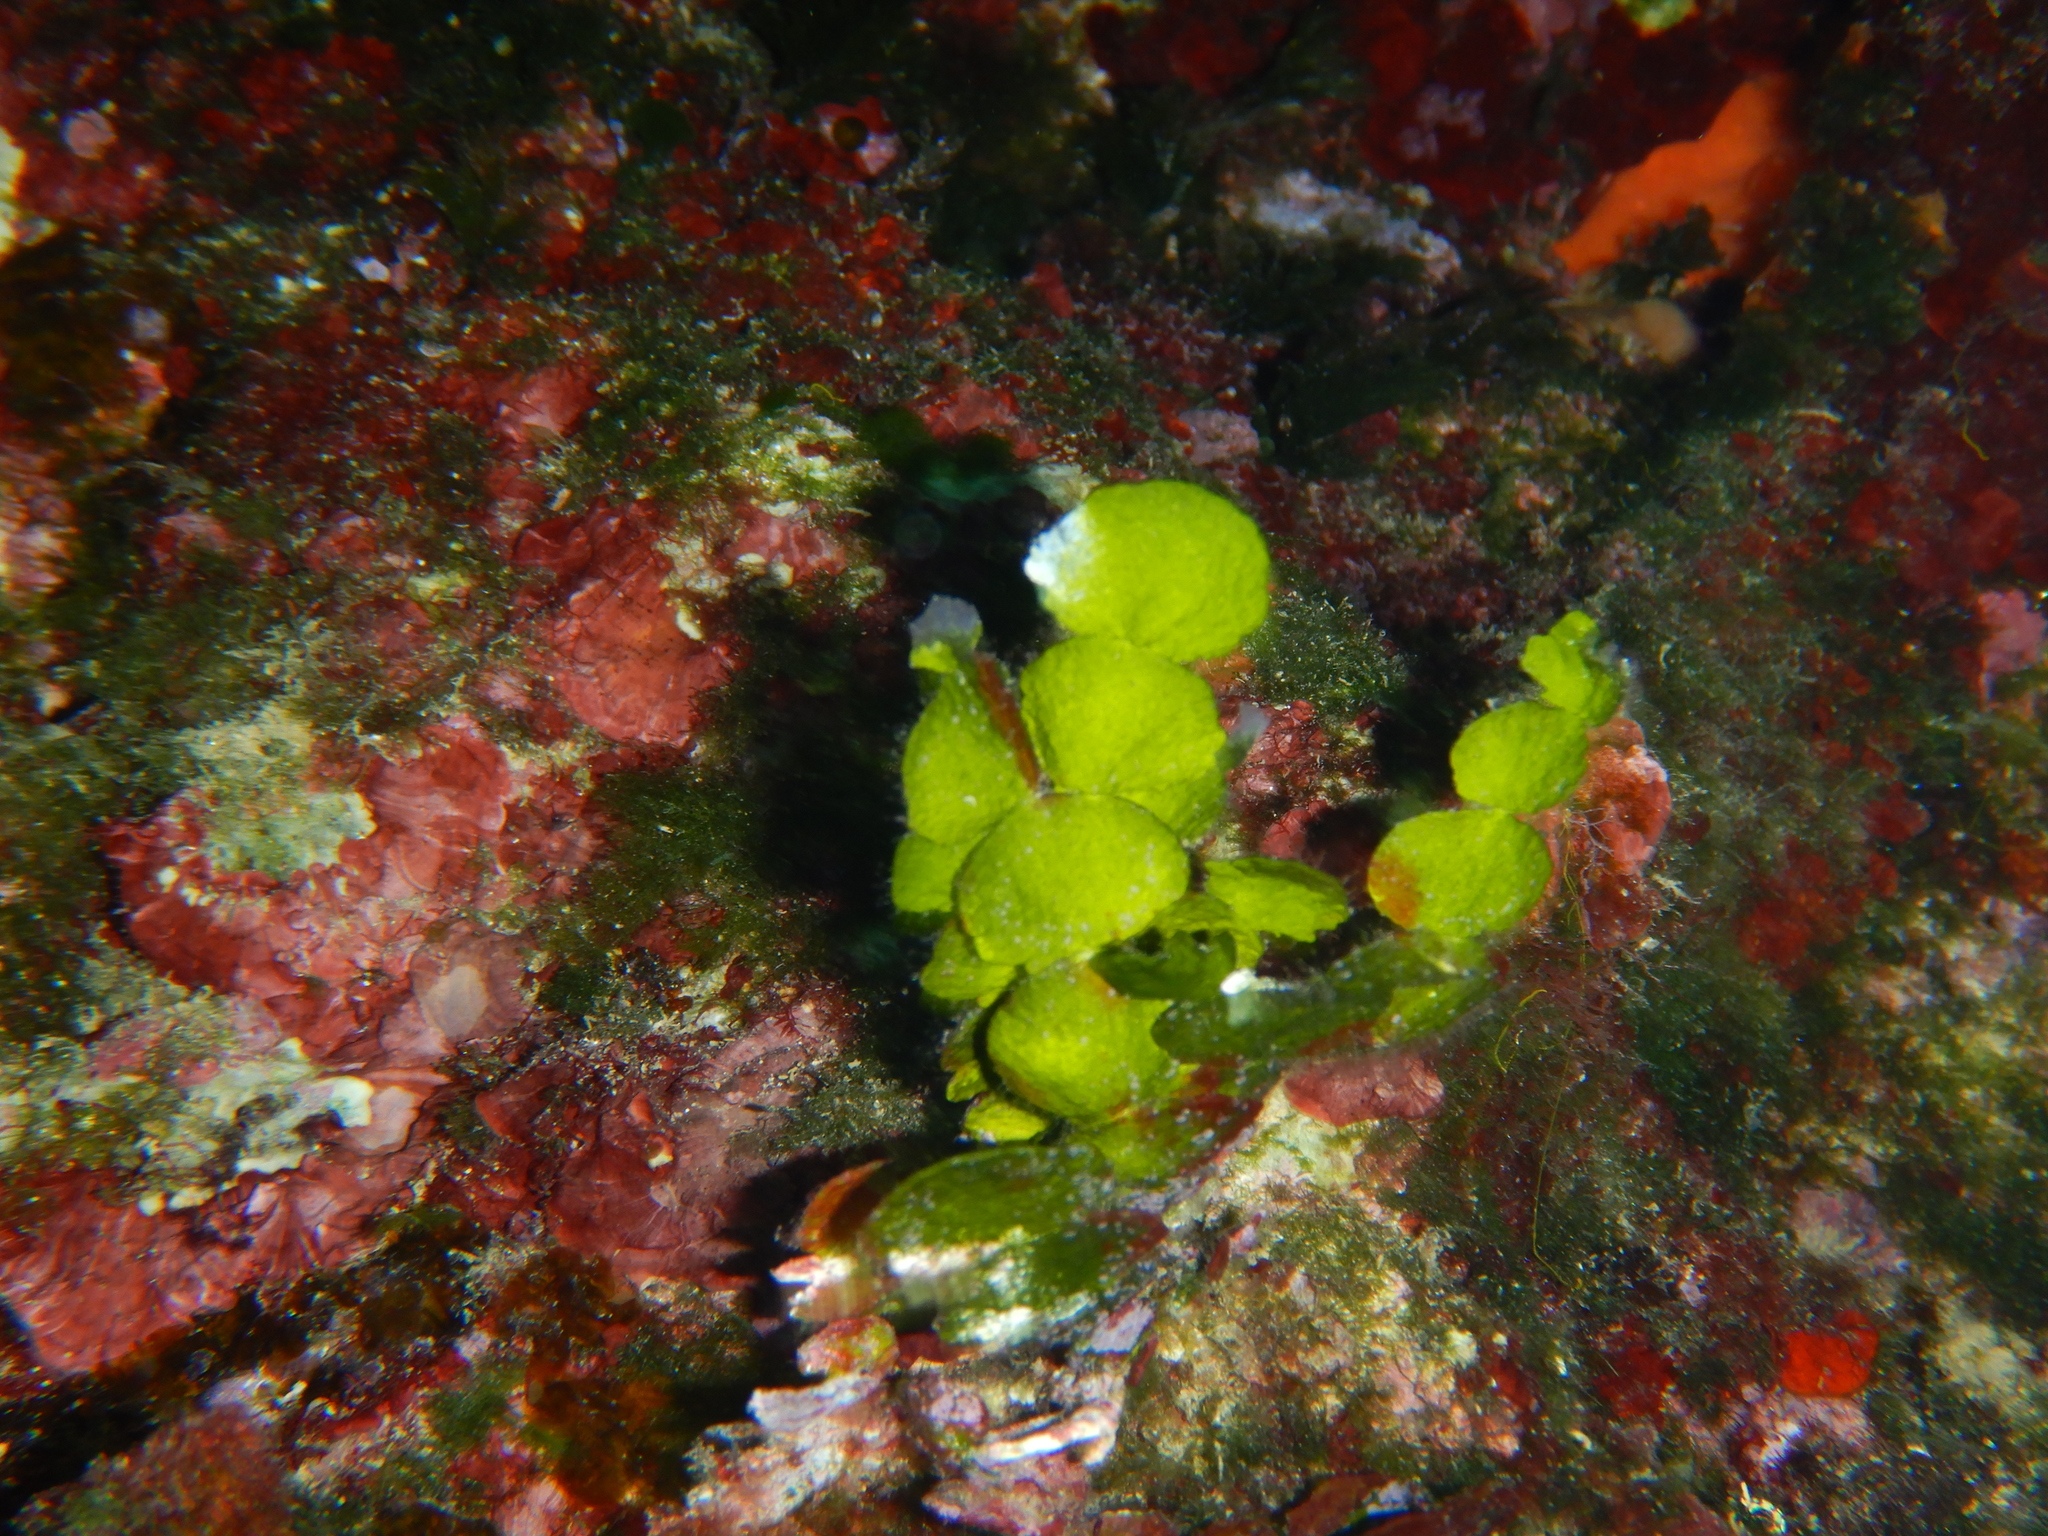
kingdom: Plantae
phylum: Chlorophyta
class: Ulvophyceae
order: Bryopsidales
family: Halimedaceae
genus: Halimeda
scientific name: Halimeda tuna
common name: Stalked lettuce leaf algae
